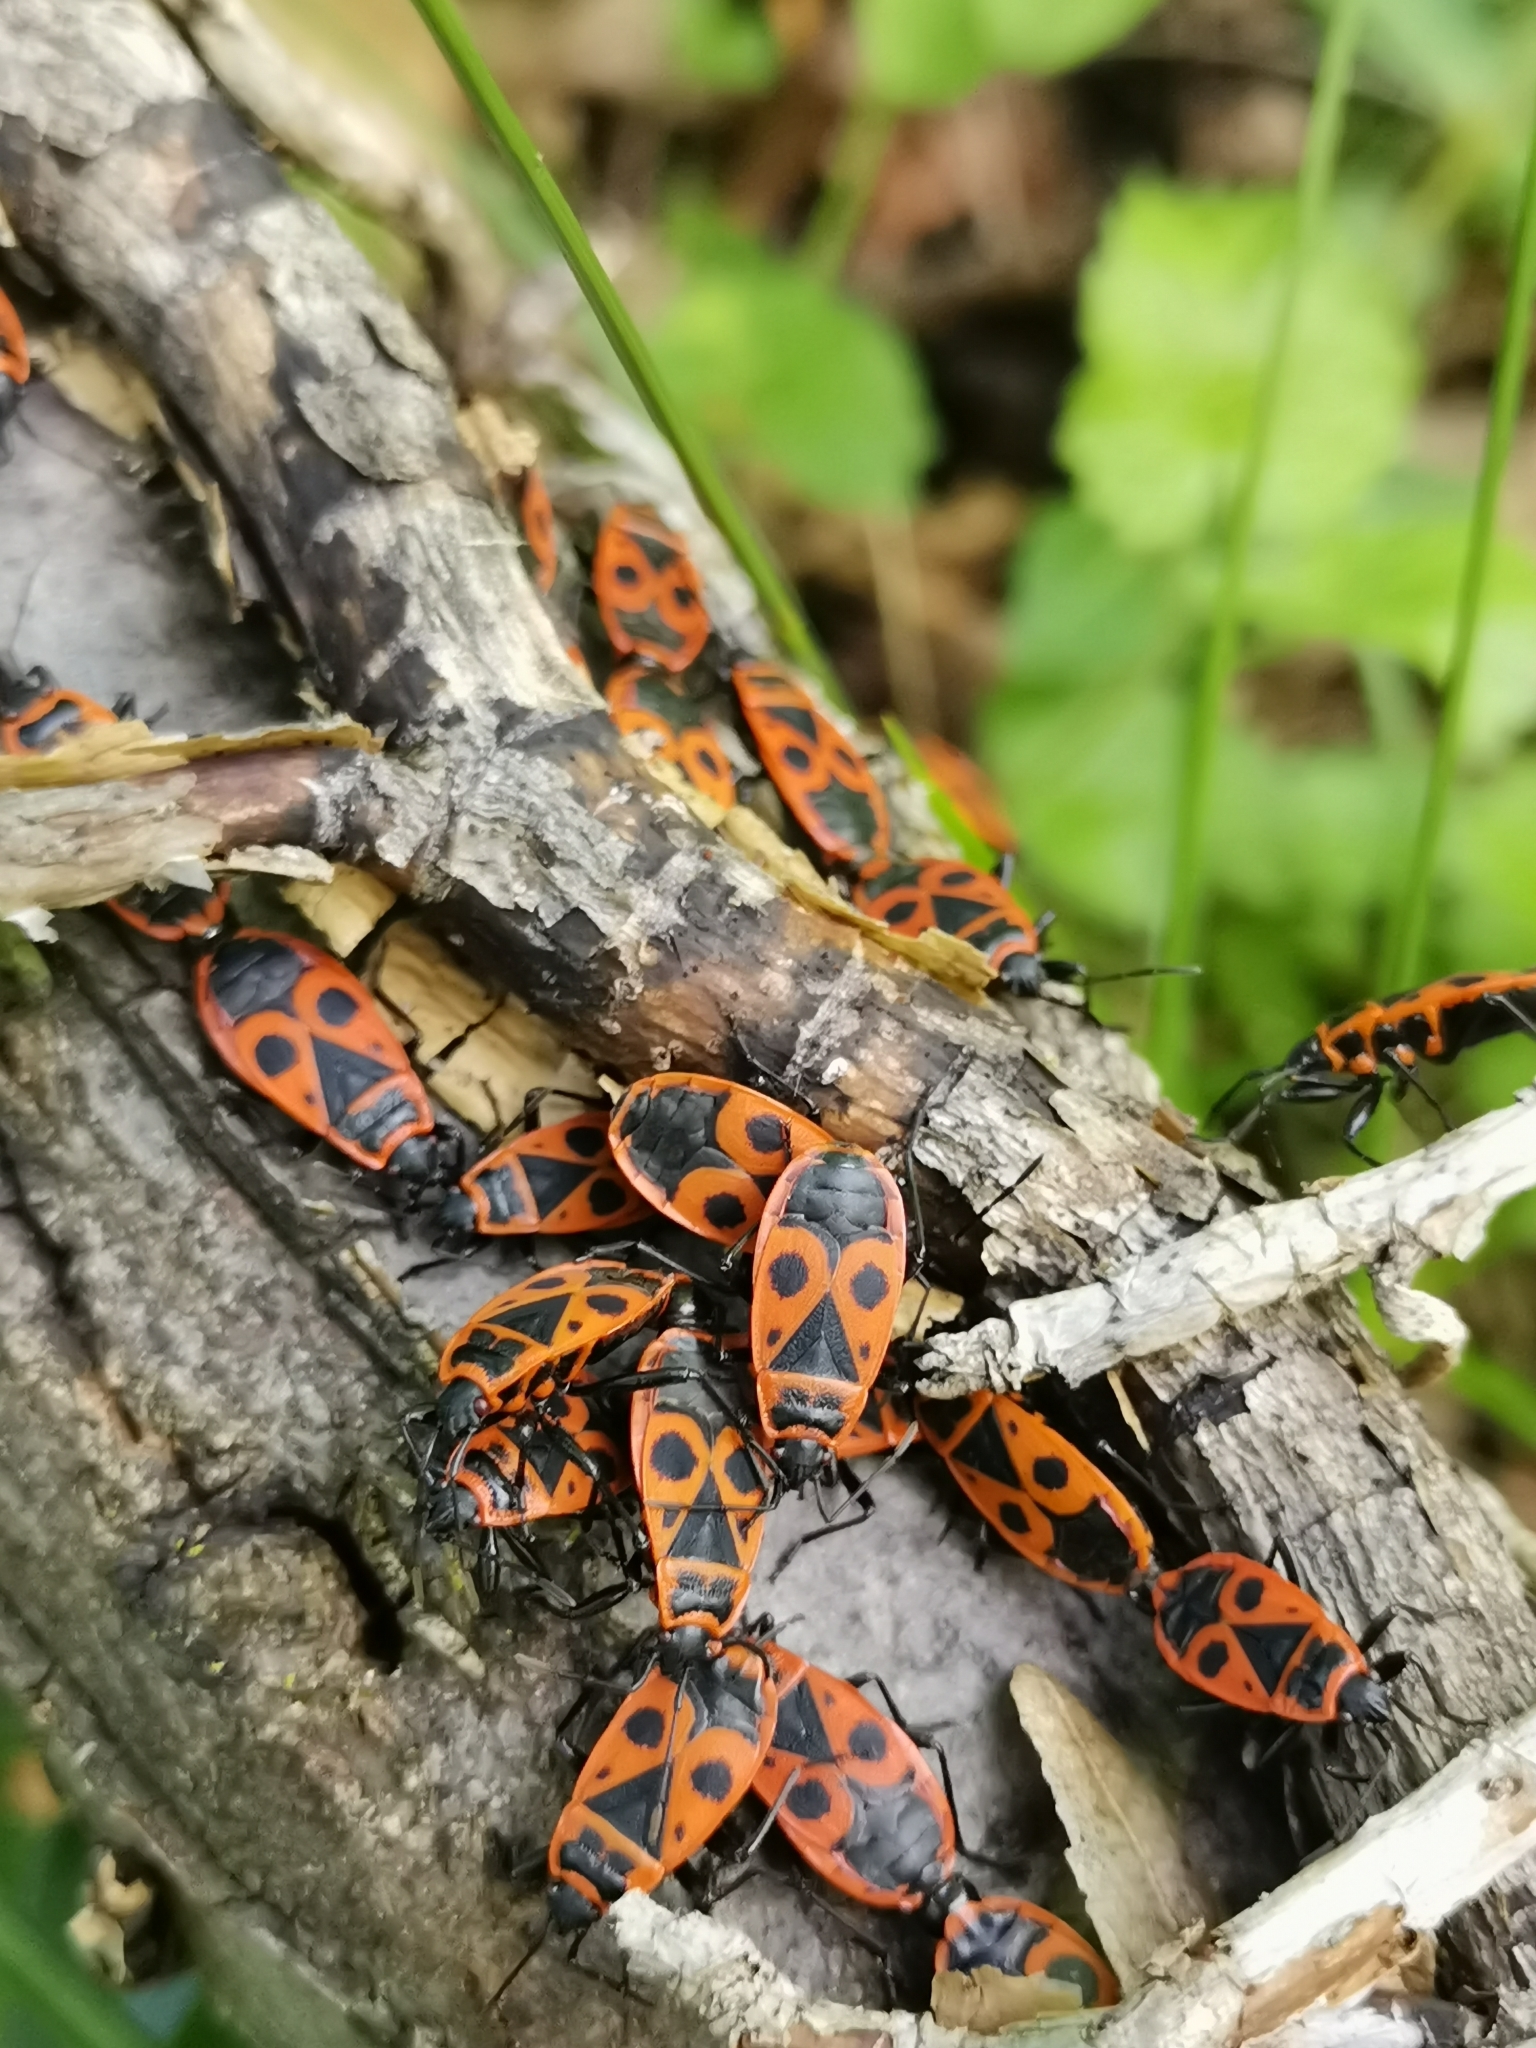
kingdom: Animalia
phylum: Arthropoda
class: Insecta
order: Hemiptera
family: Pyrrhocoridae
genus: Pyrrhocoris
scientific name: Pyrrhocoris apterus
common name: Firebug
